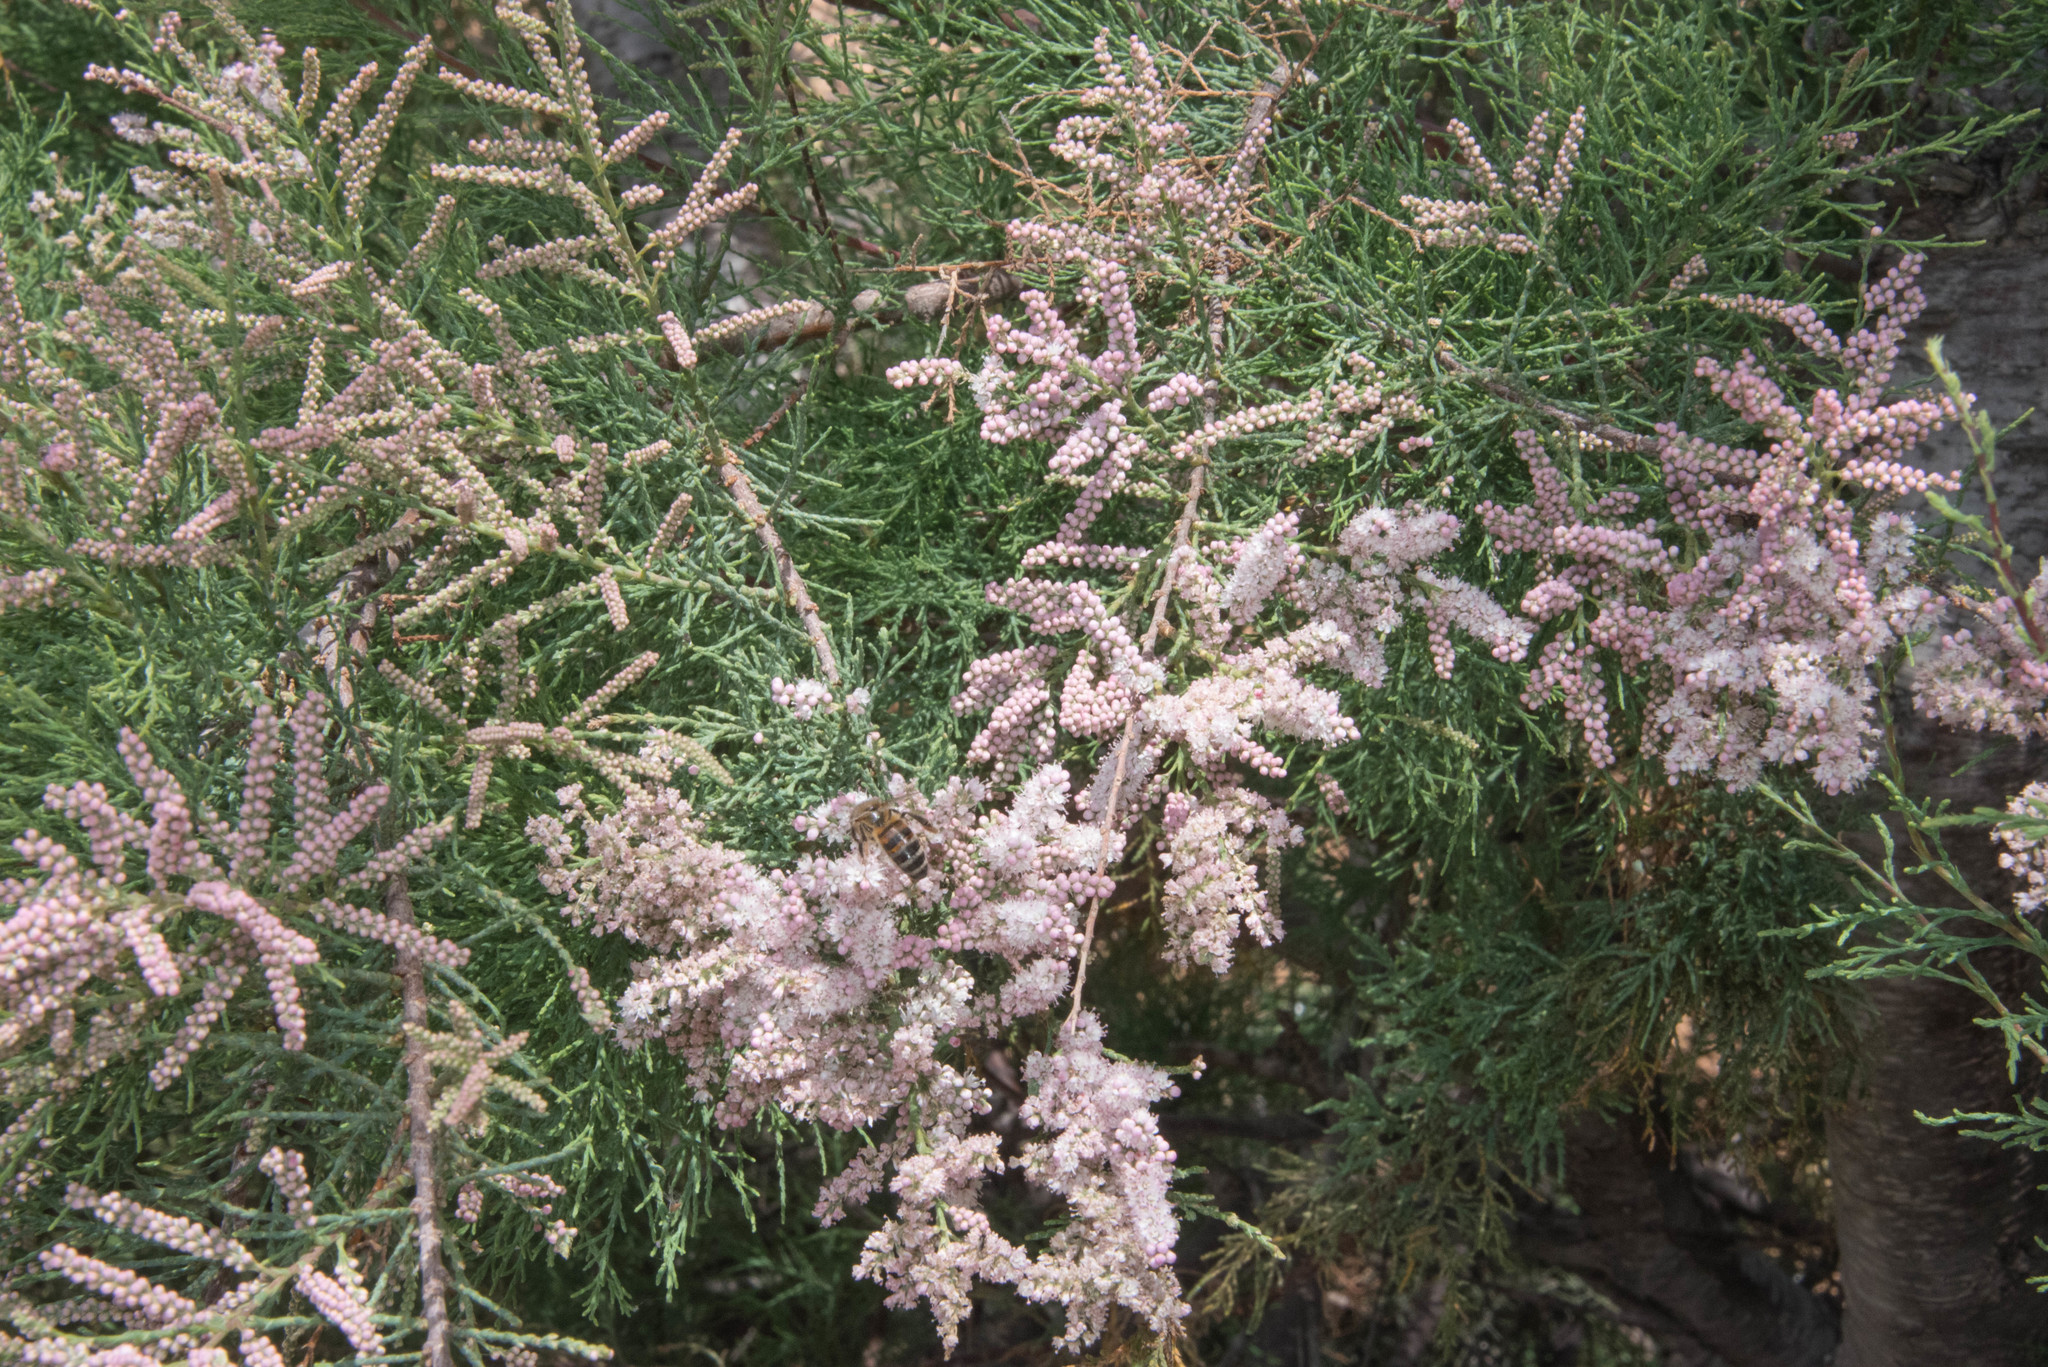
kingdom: Plantae
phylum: Tracheophyta
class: Magnoliopsida
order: Caryophyllales
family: Tamaricaceae
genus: Tamarix
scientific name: Tamarix africana
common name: African tamarisk
